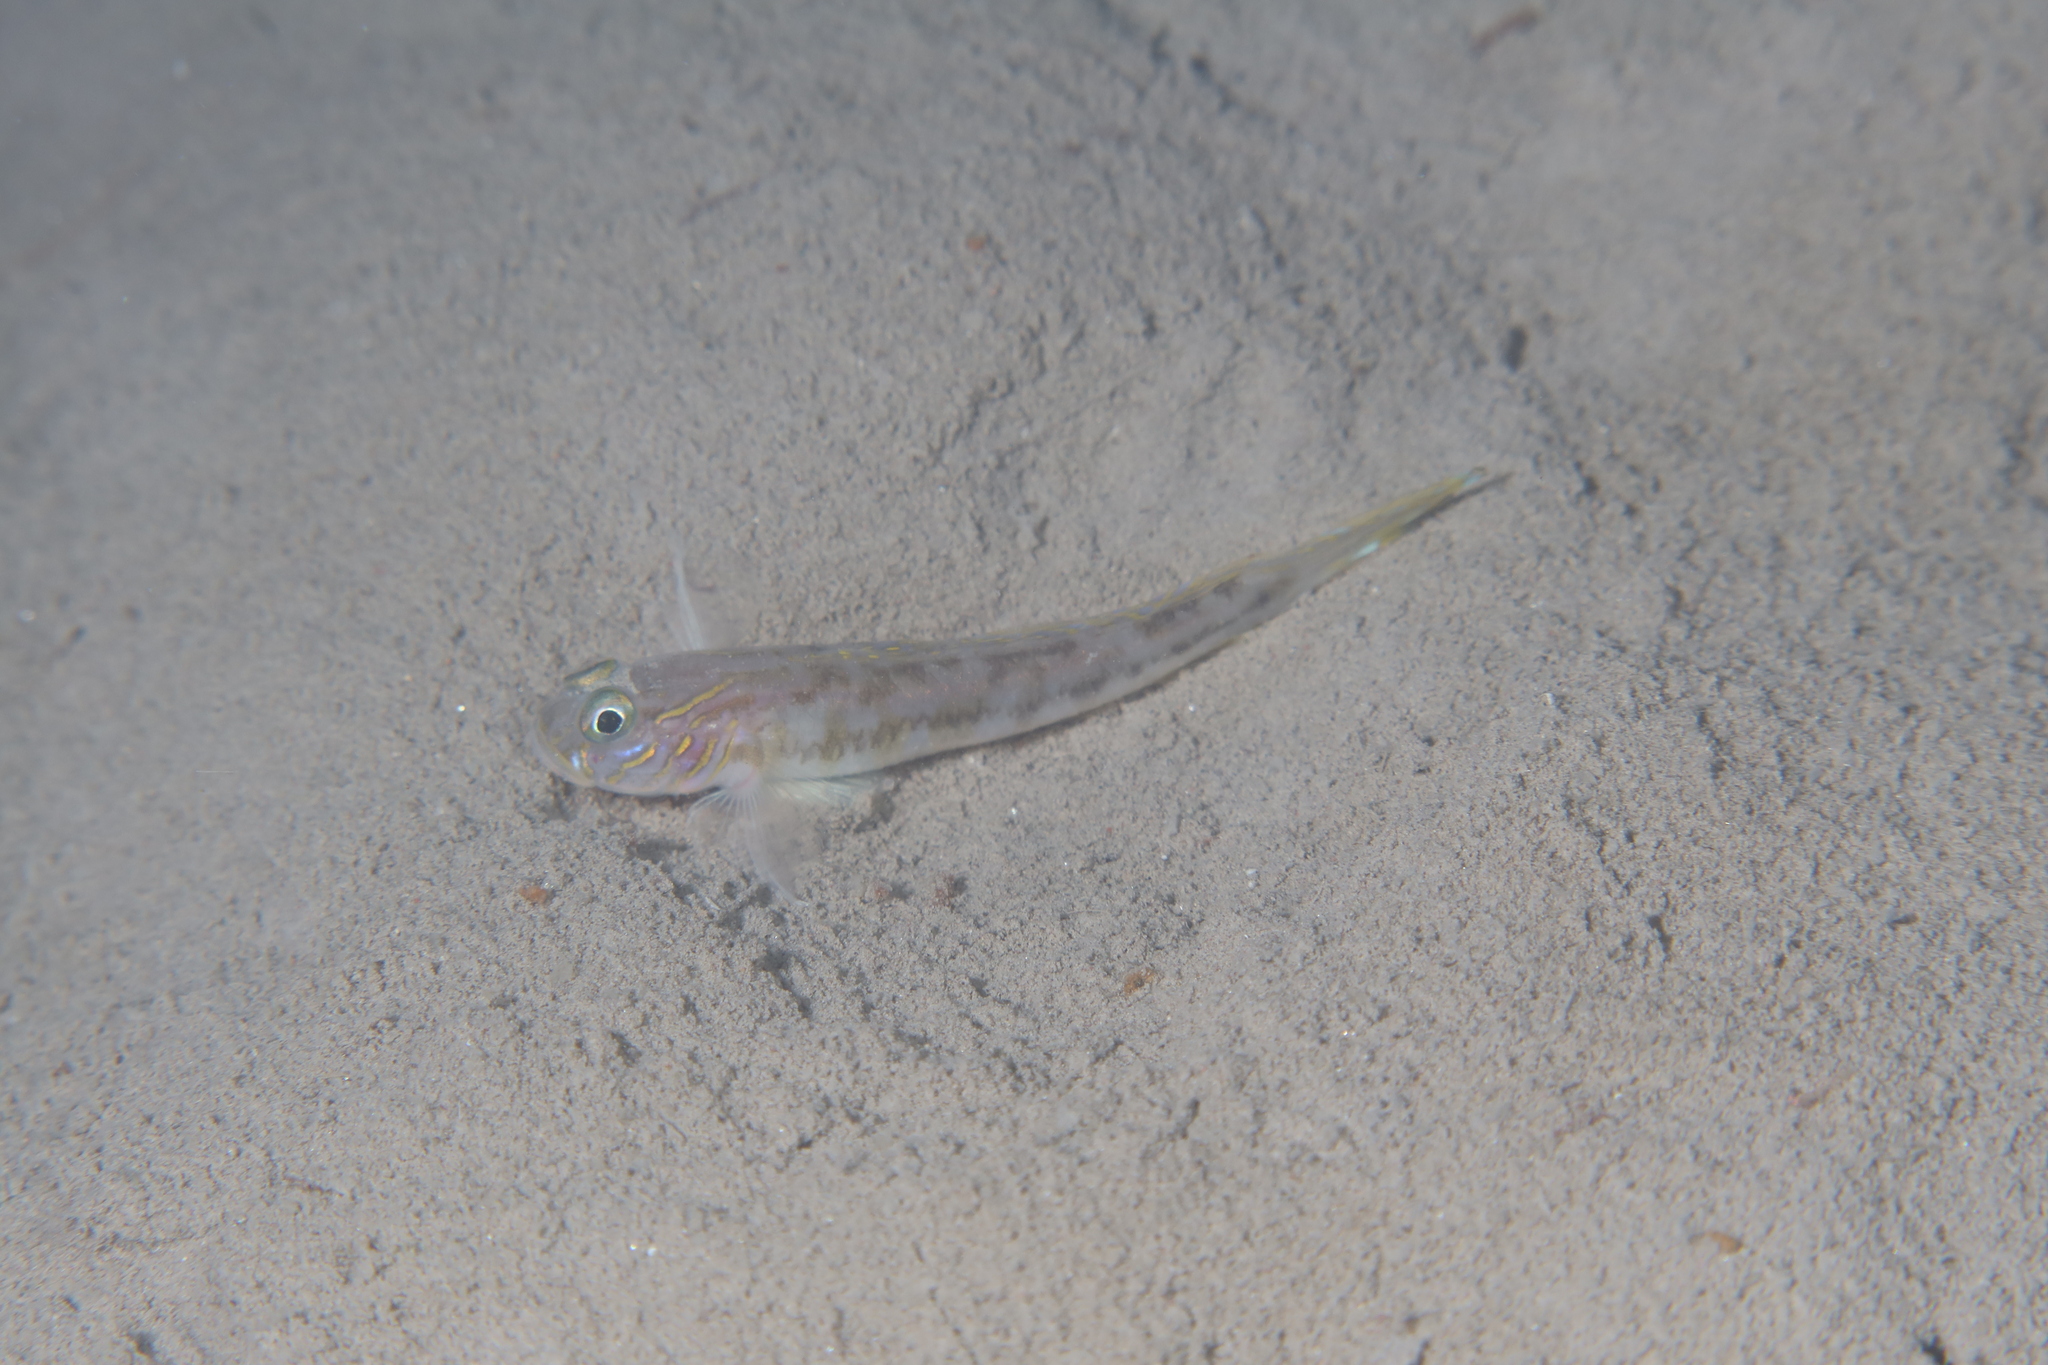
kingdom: Animalia
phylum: Chordata
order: Perciformes
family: Gobiidae
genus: Lesueurigobius
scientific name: Lesueurigobius suerii
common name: Lesueur's goby
